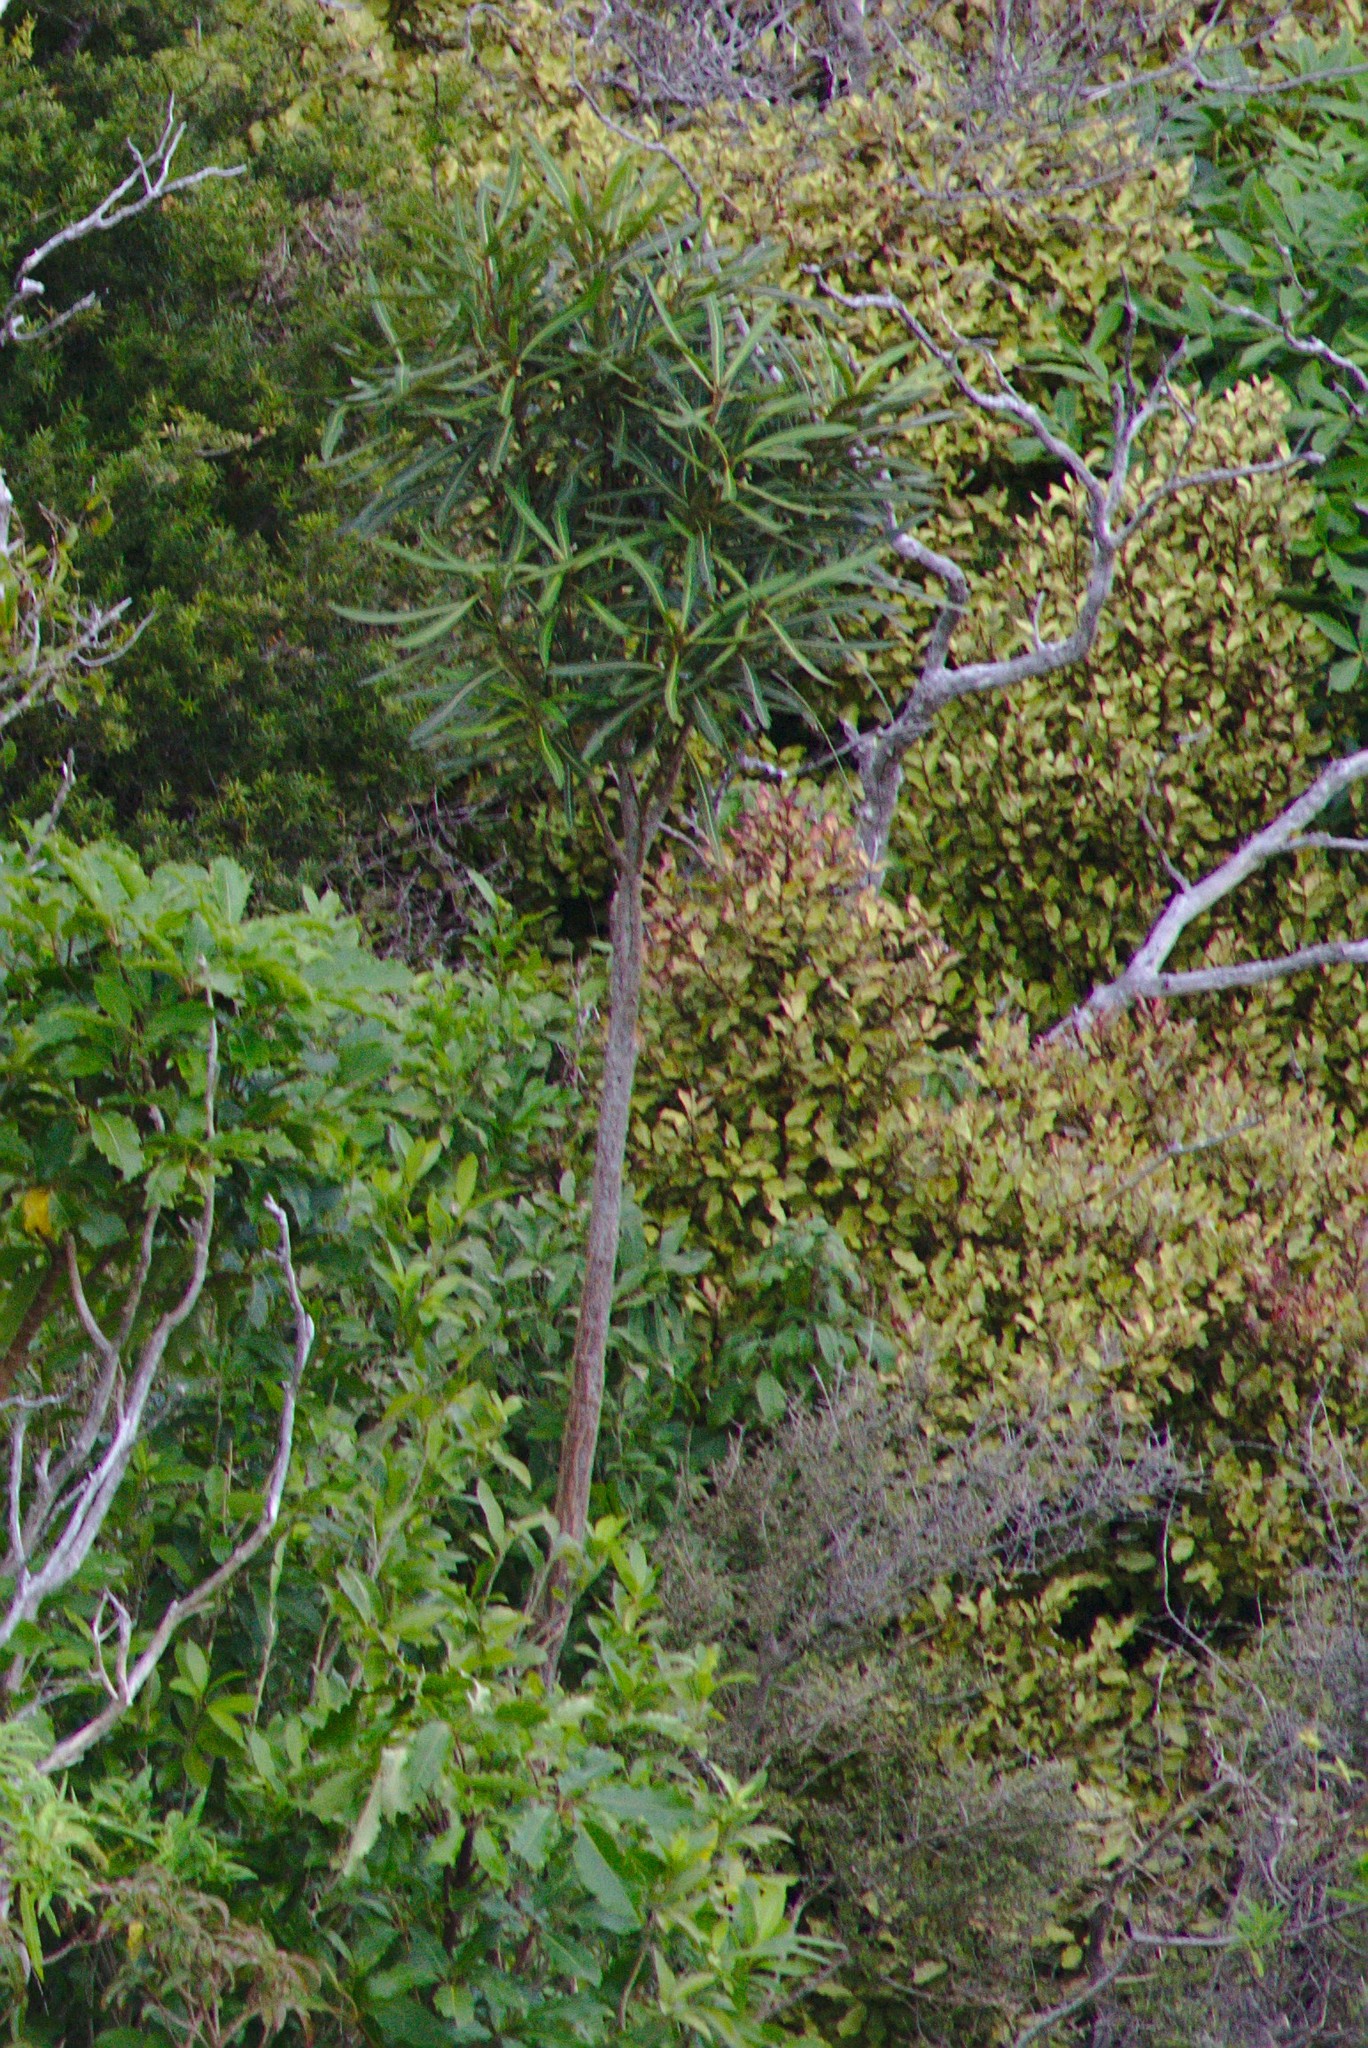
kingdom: Plantae
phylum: Tracheophyta
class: Magnoliopsida
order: Apiales
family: Araliaceae
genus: Pseudopanax
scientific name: Pseudopanax crassifolius
